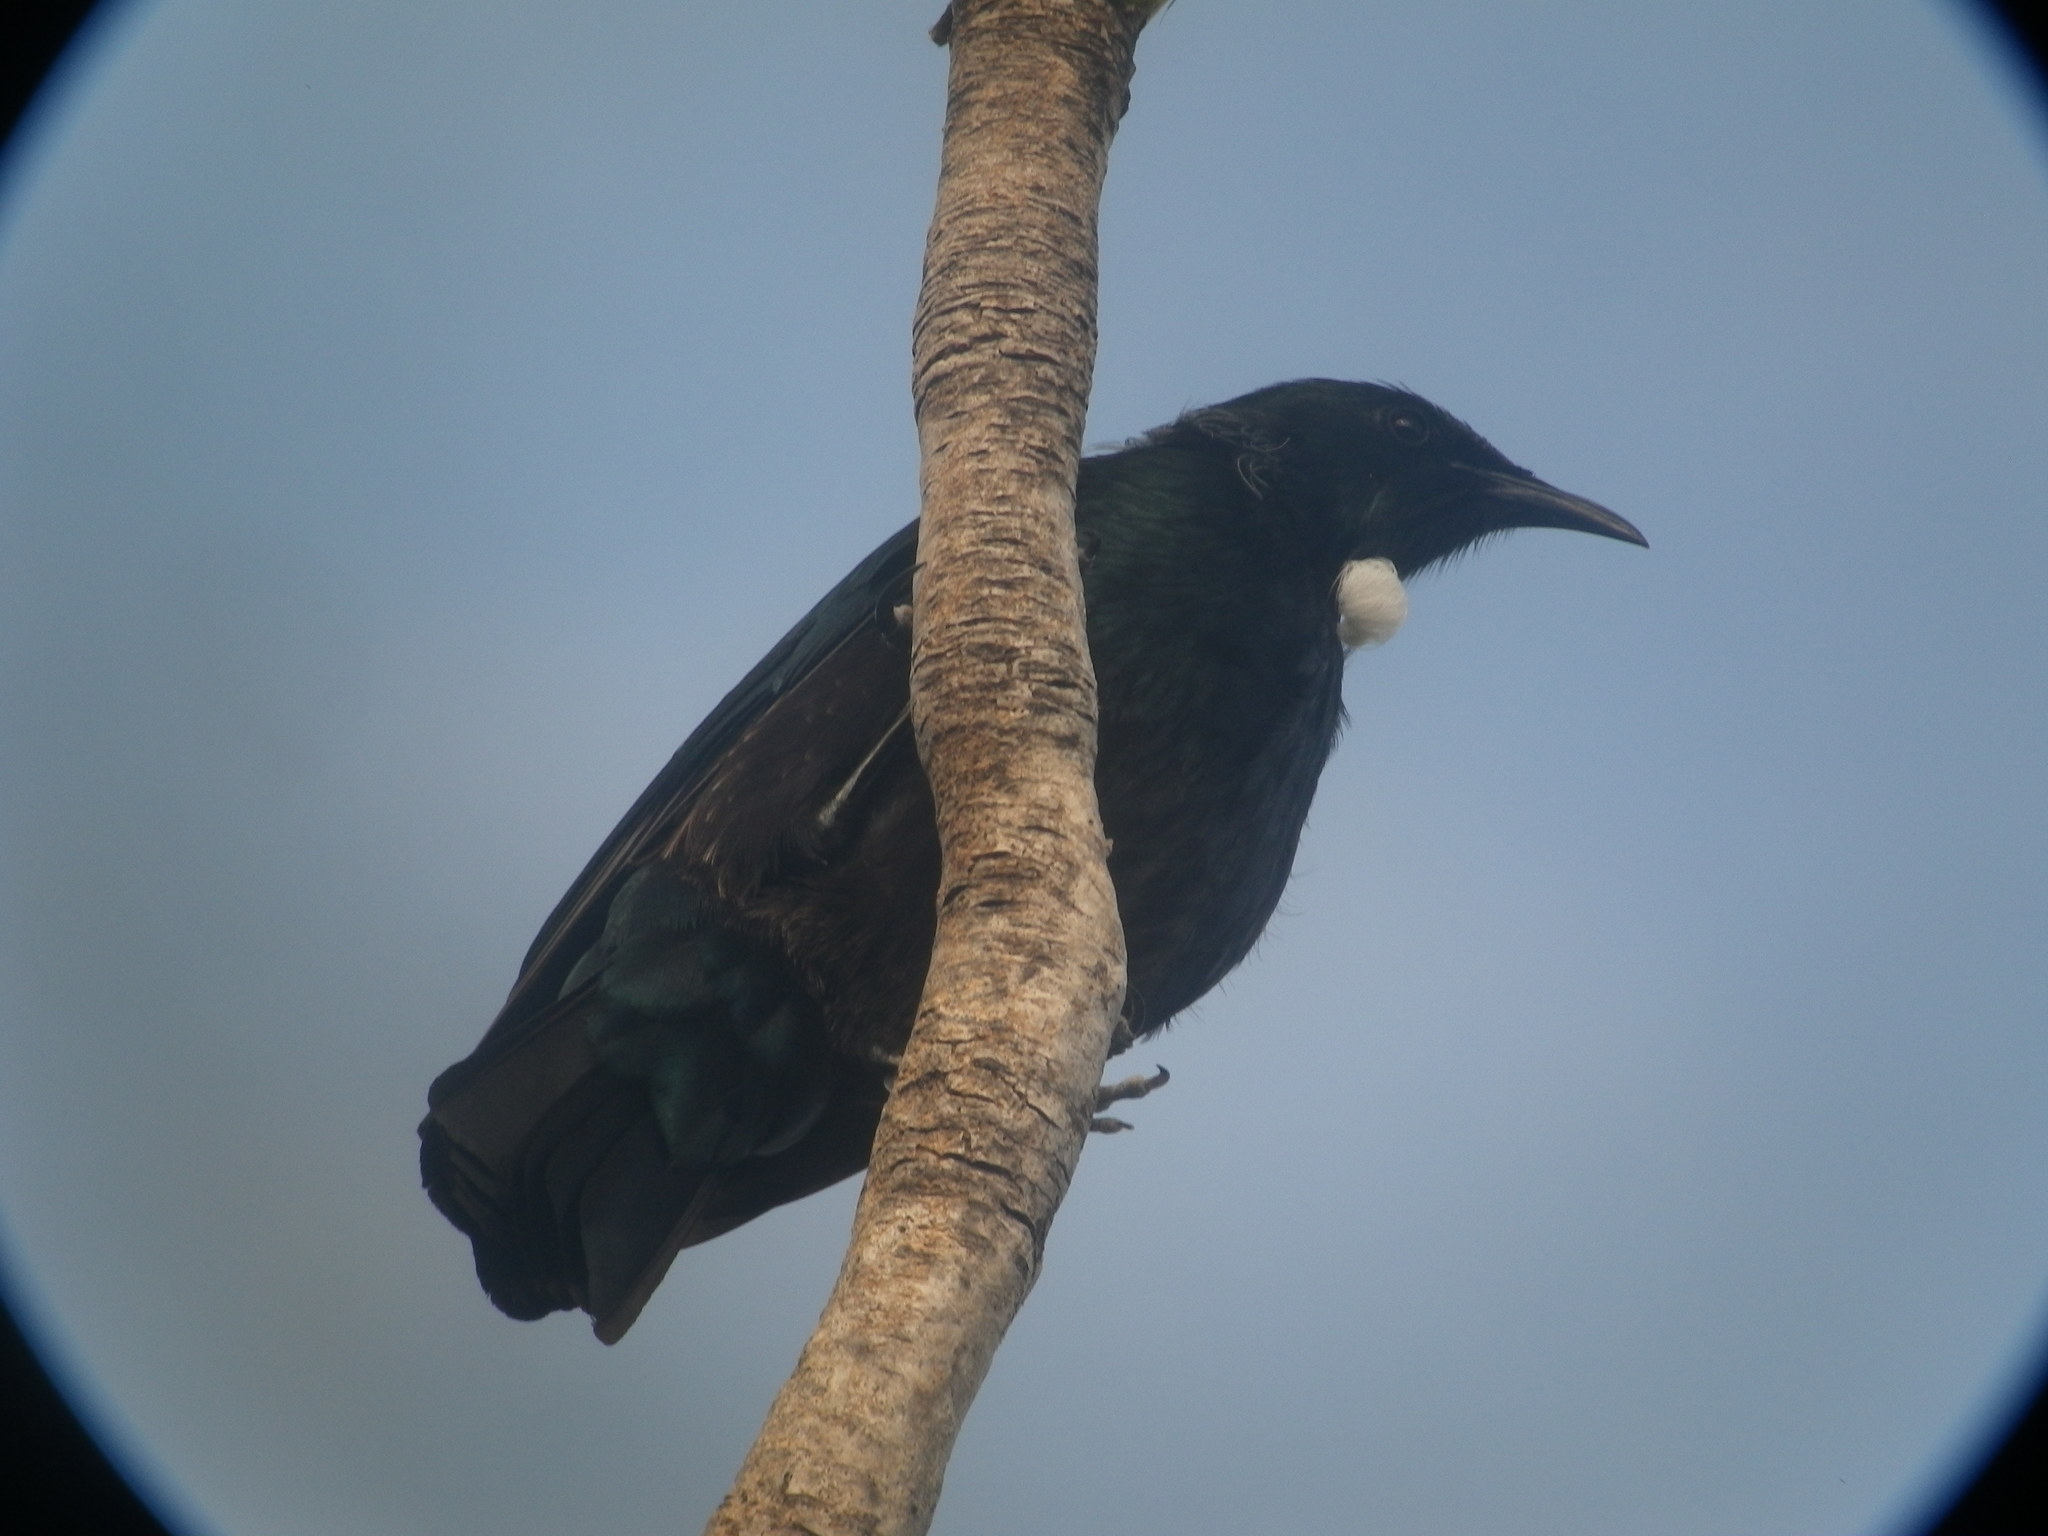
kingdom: Animalia
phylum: Chordata
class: Aves
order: Passeriformes
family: Meliphagidae
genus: Prosthemadera
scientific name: Prosthemadera novaeseelandiae
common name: Tui
